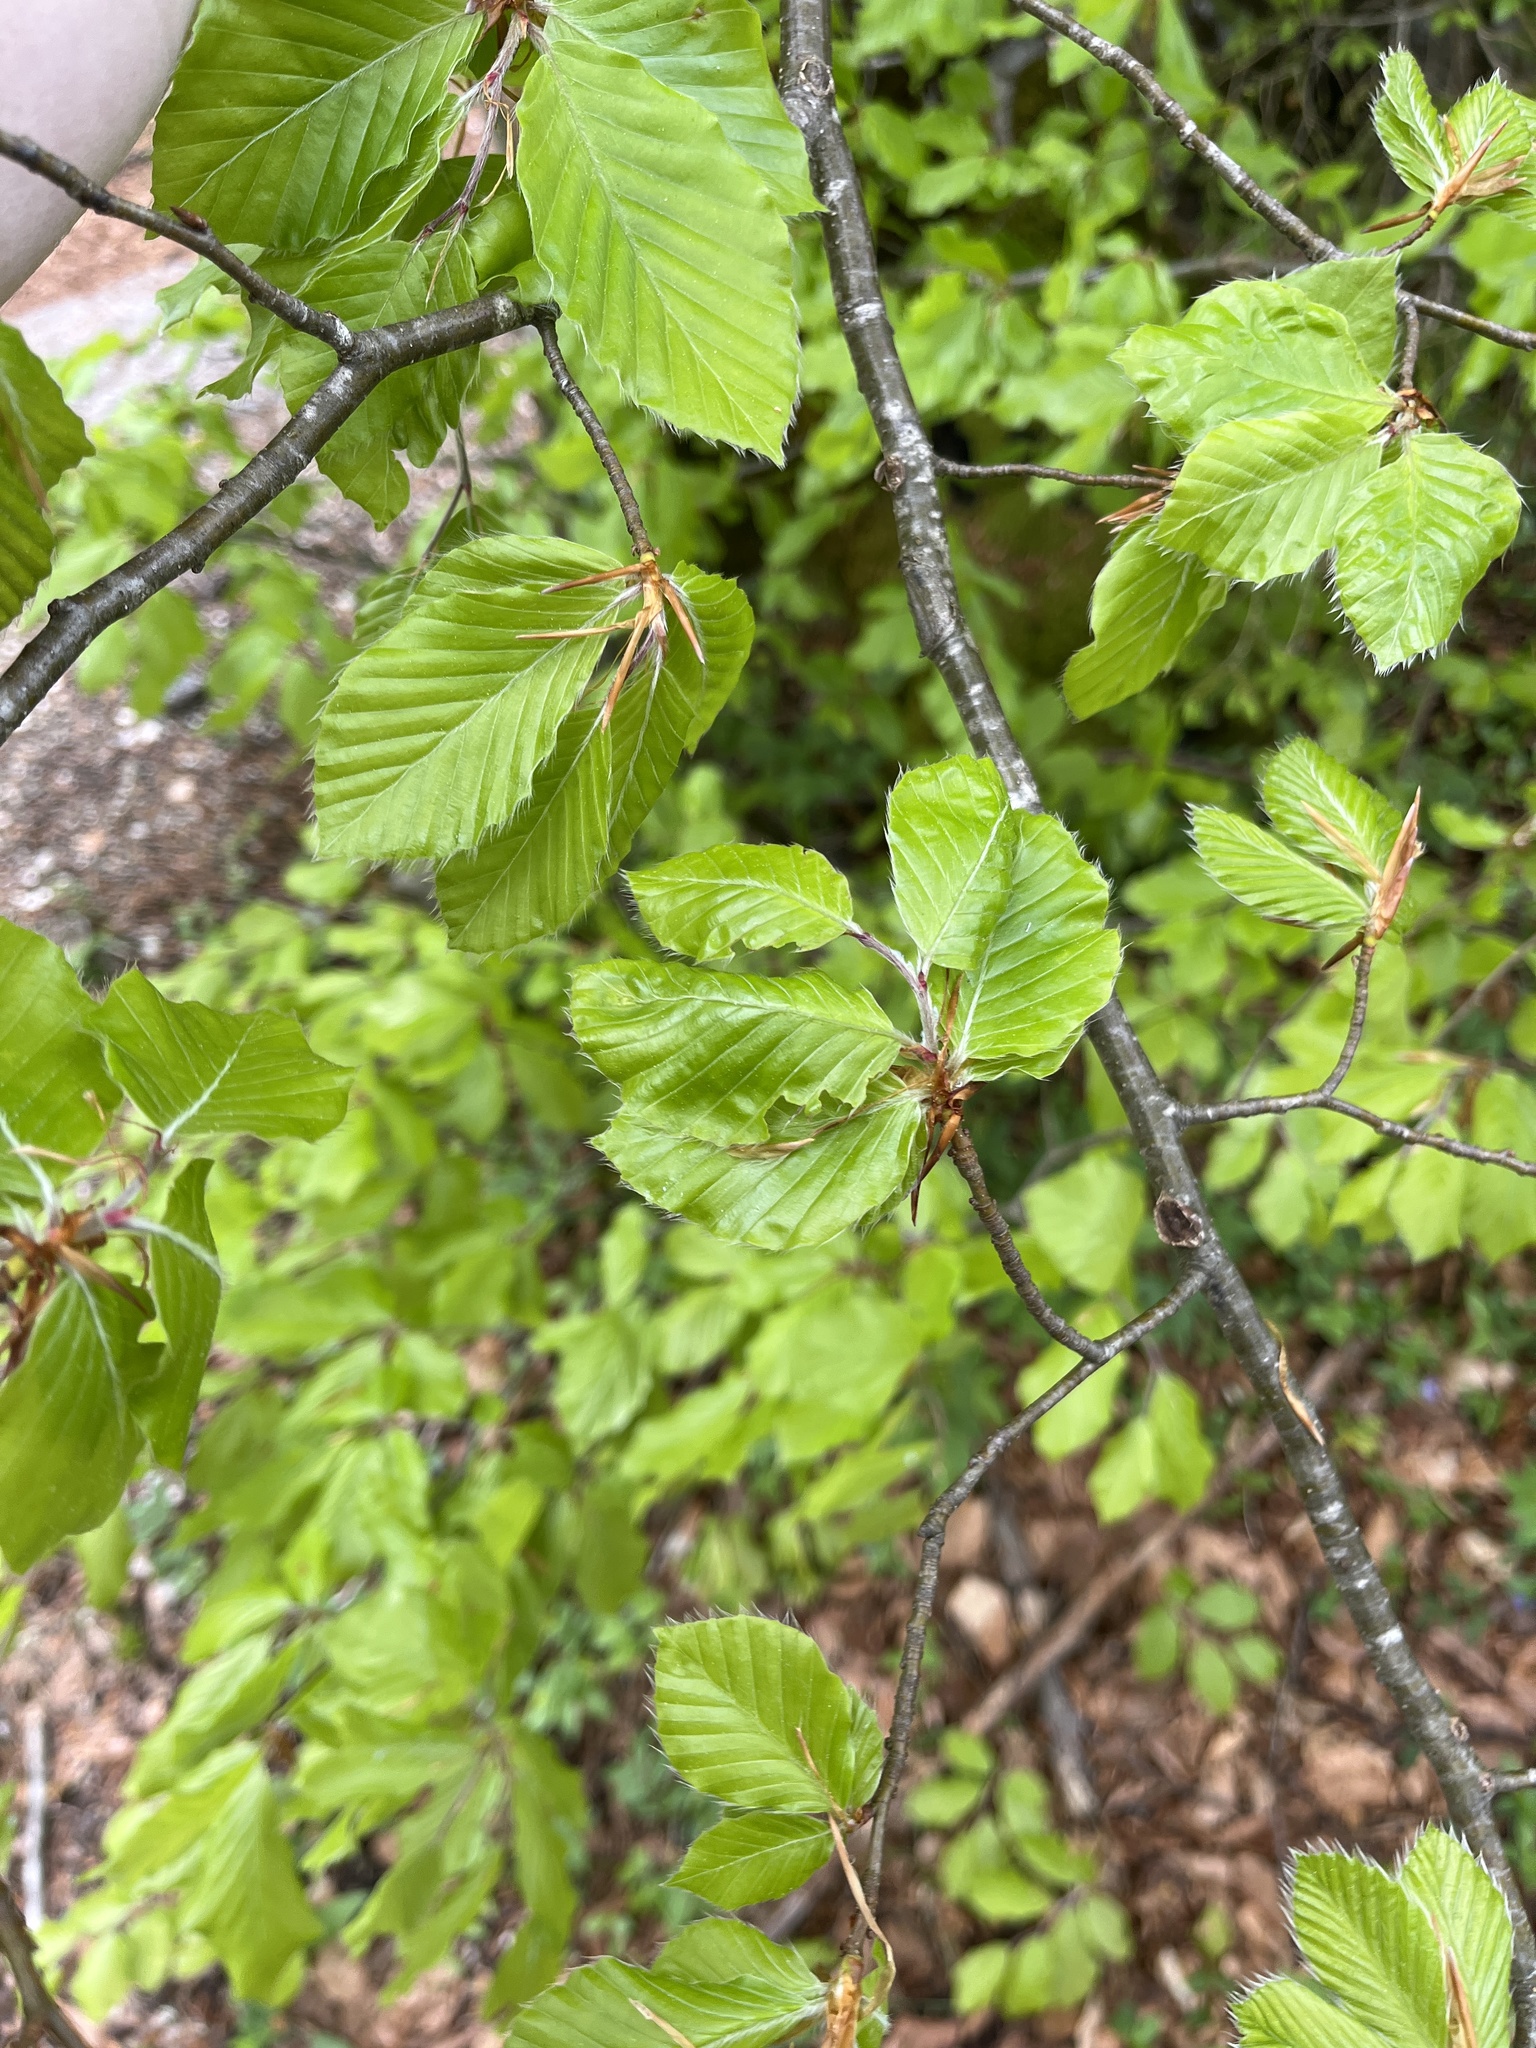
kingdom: Plantae
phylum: Tracheophyta
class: Magnoliopsida
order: Fagales
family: Fagaceae
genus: Fagus
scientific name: Fagus sylvatica
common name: Beech
